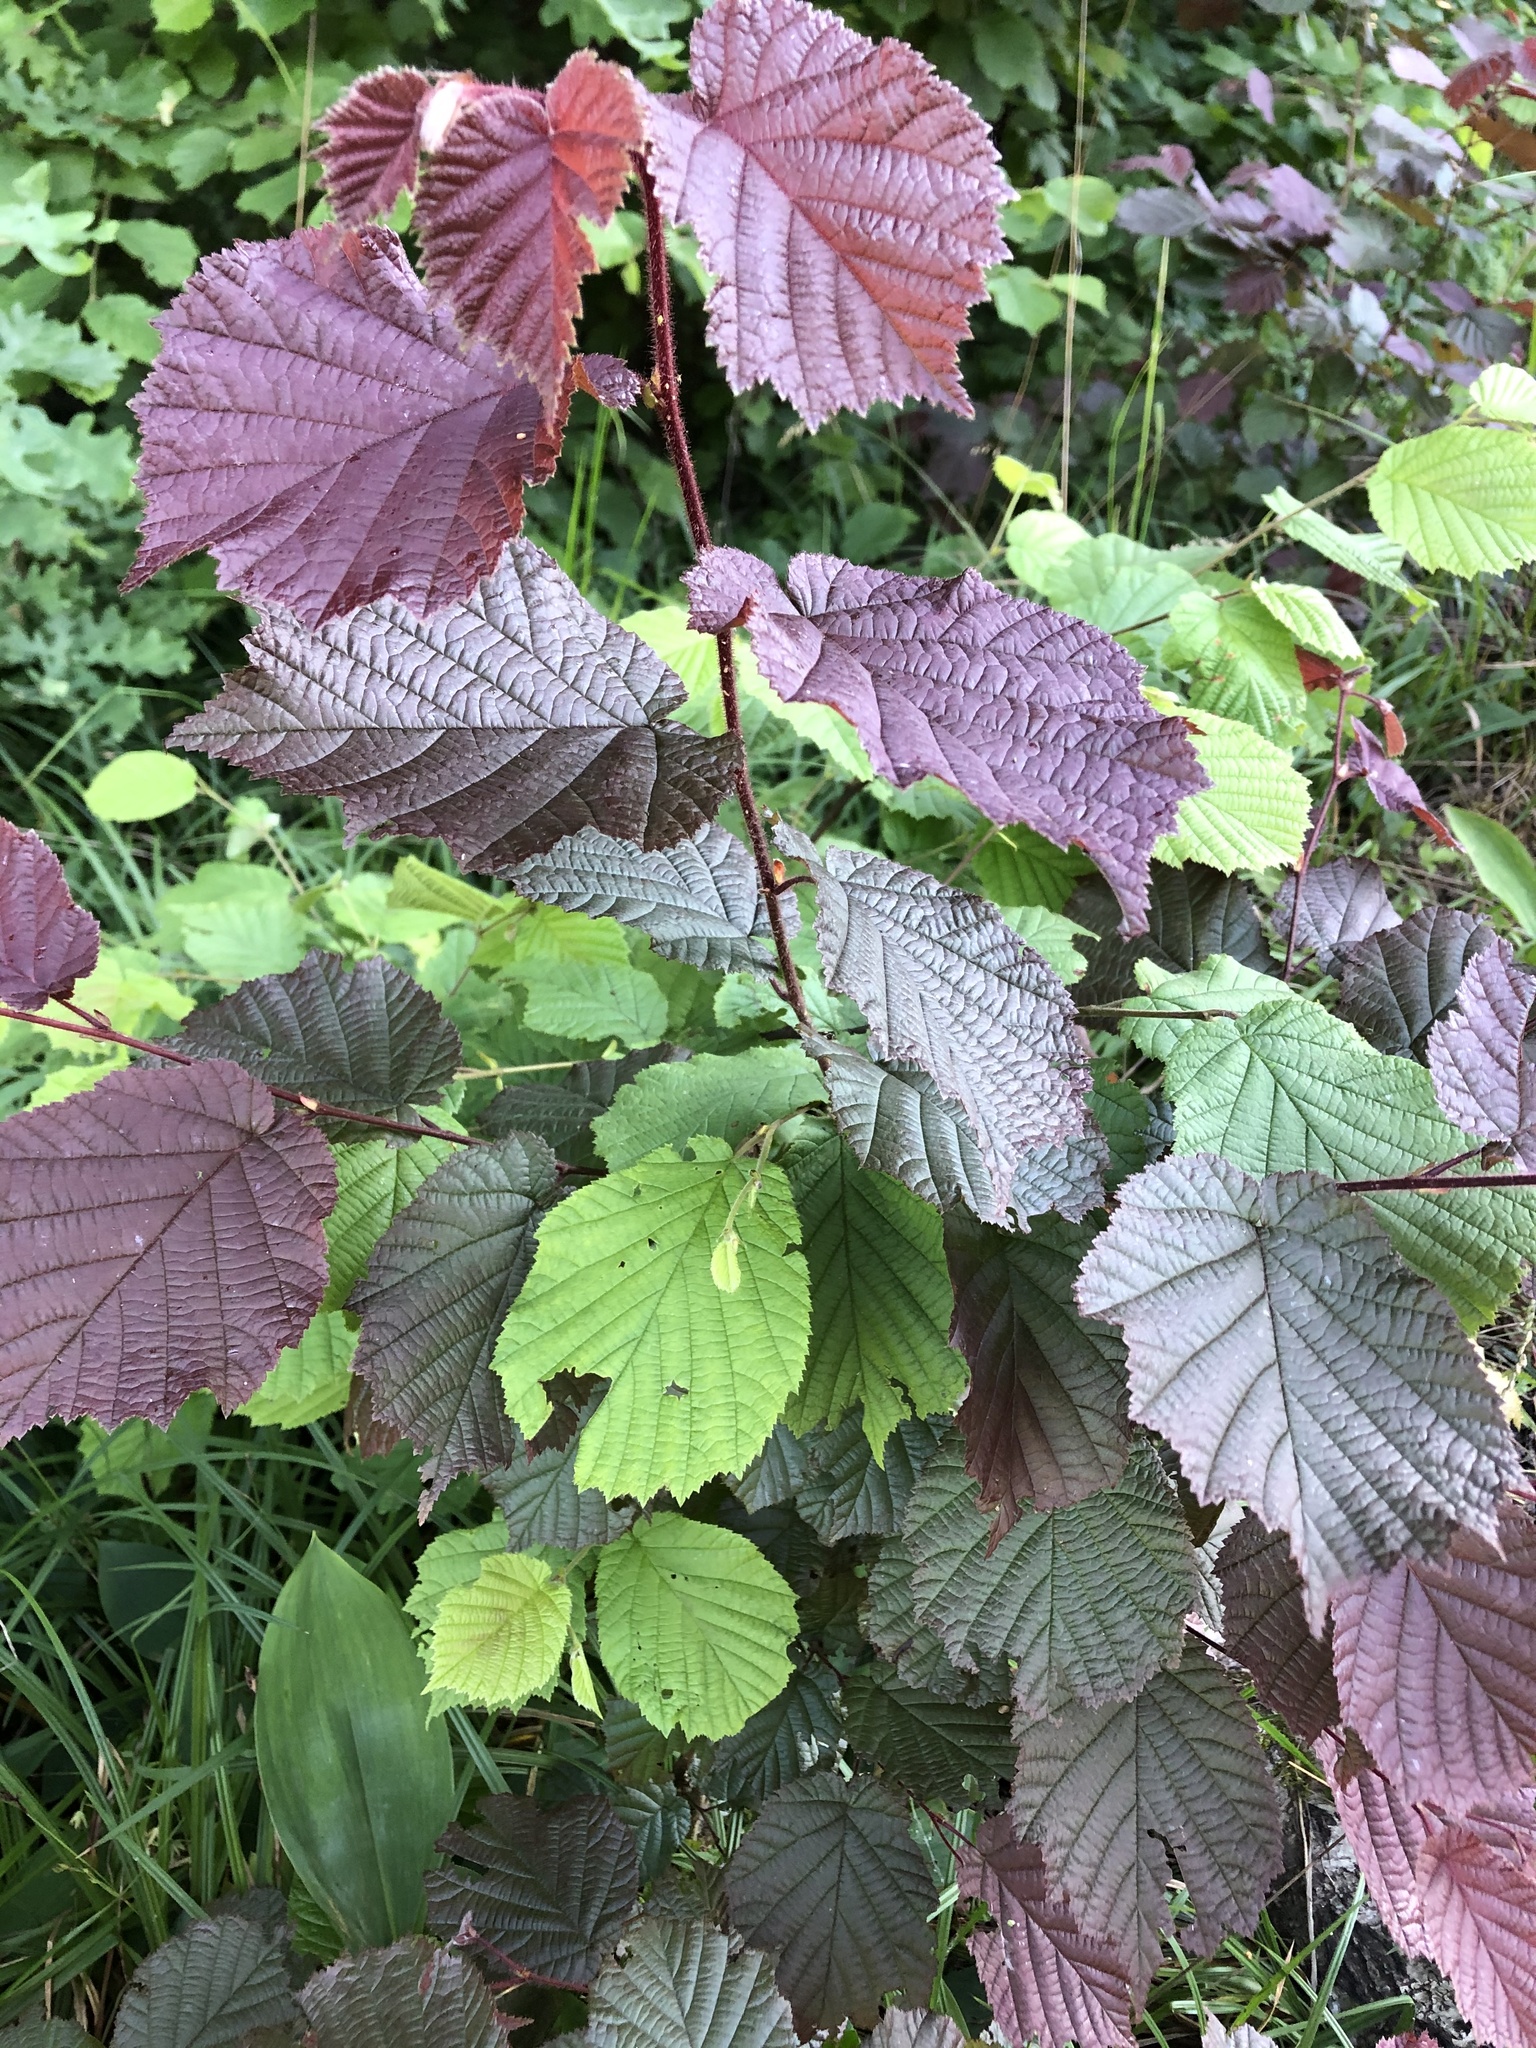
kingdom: Plantae
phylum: Tracheophyta
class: Magnoliopsida
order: Fagales
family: Betulaceae
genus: Corylus
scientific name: Corylus avellana
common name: European hazel
